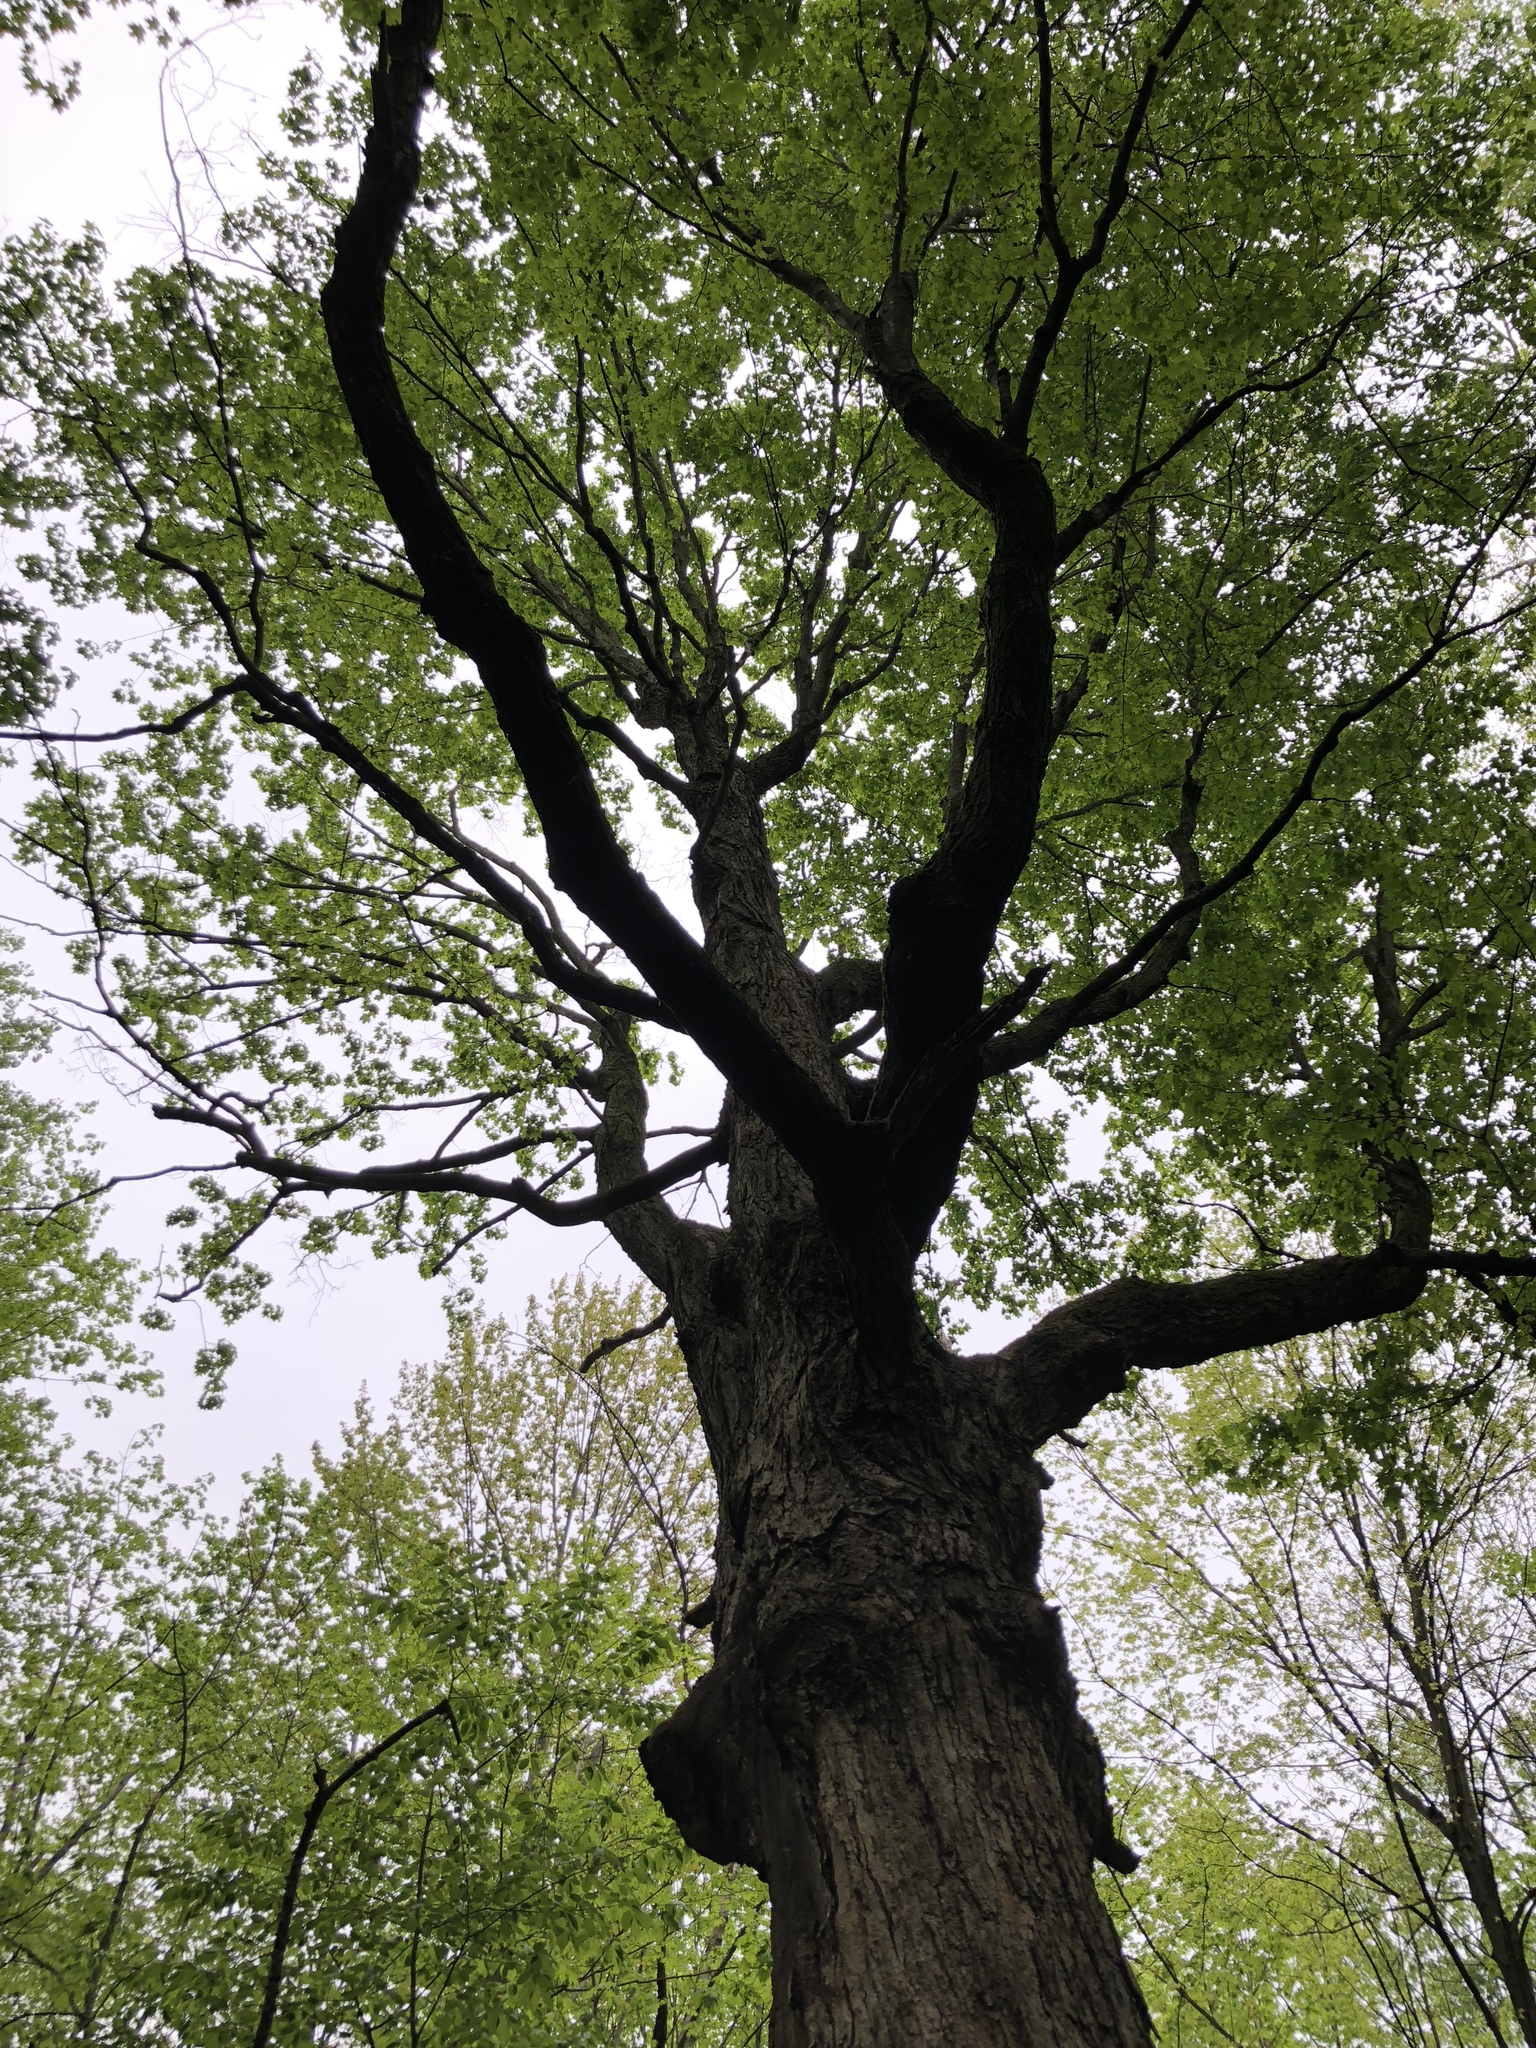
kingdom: Plantae
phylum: Tracheophyta
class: Magnoliopsida
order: Sapindales
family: Sapindaceae
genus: Acer
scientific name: Acer saccharum
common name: Sugar maple
